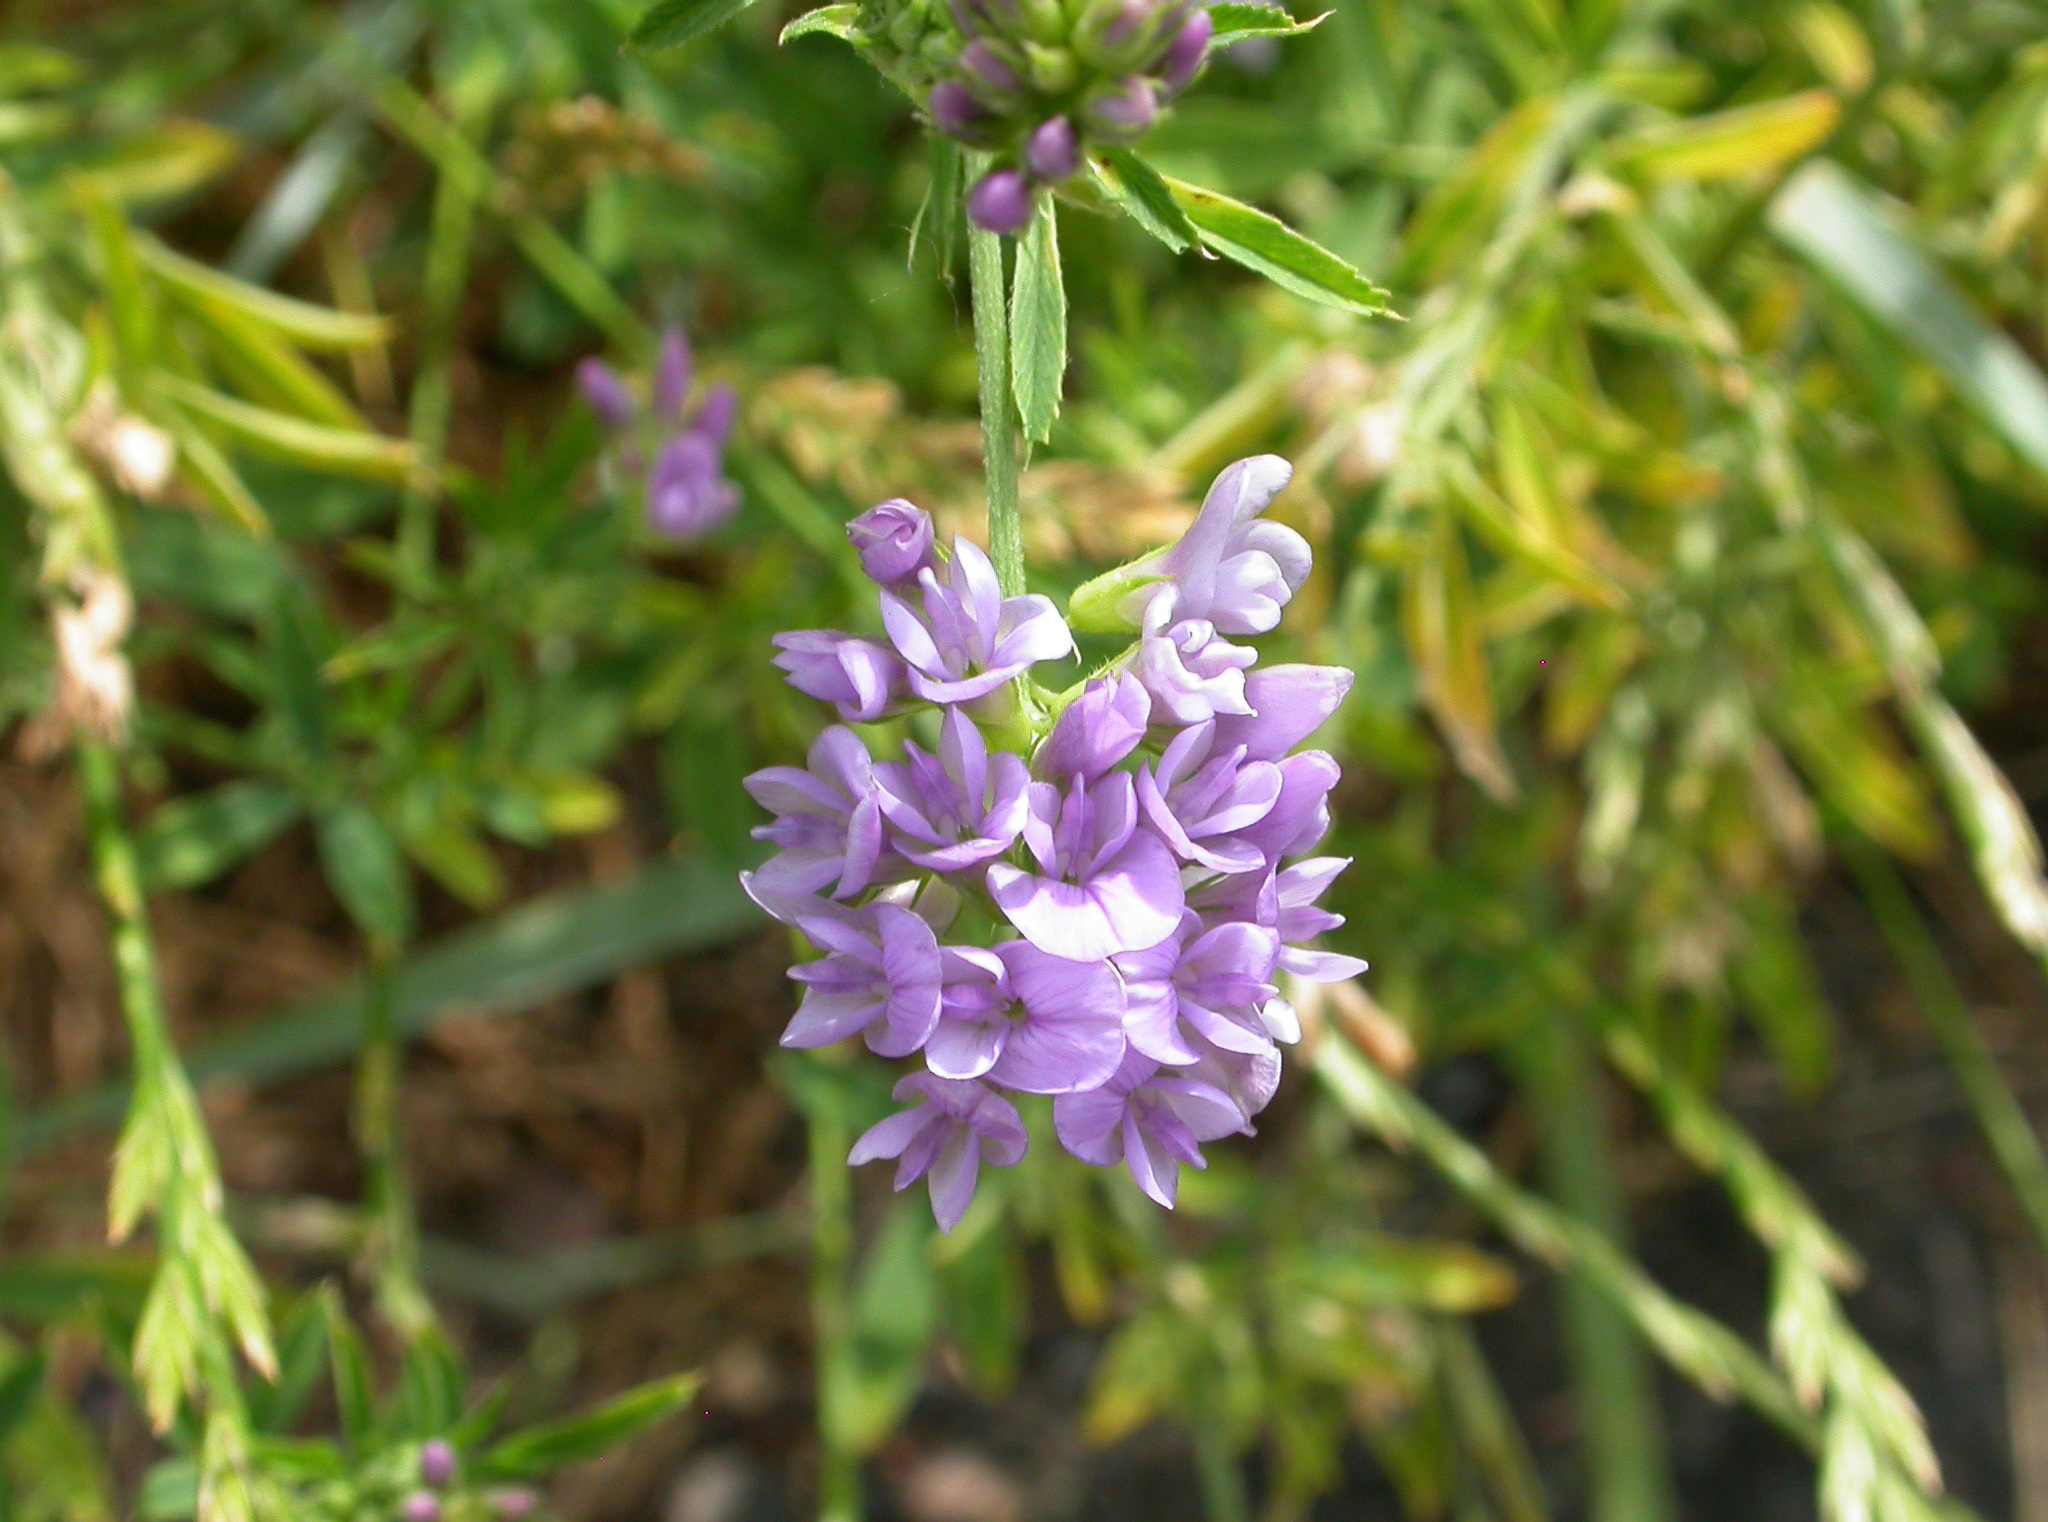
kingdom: Plantae
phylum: Tracheophyta
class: Magnoliopsida
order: Fabales
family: Fabaceae
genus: Medicago
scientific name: Medicago sativa
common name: Alfalfa
